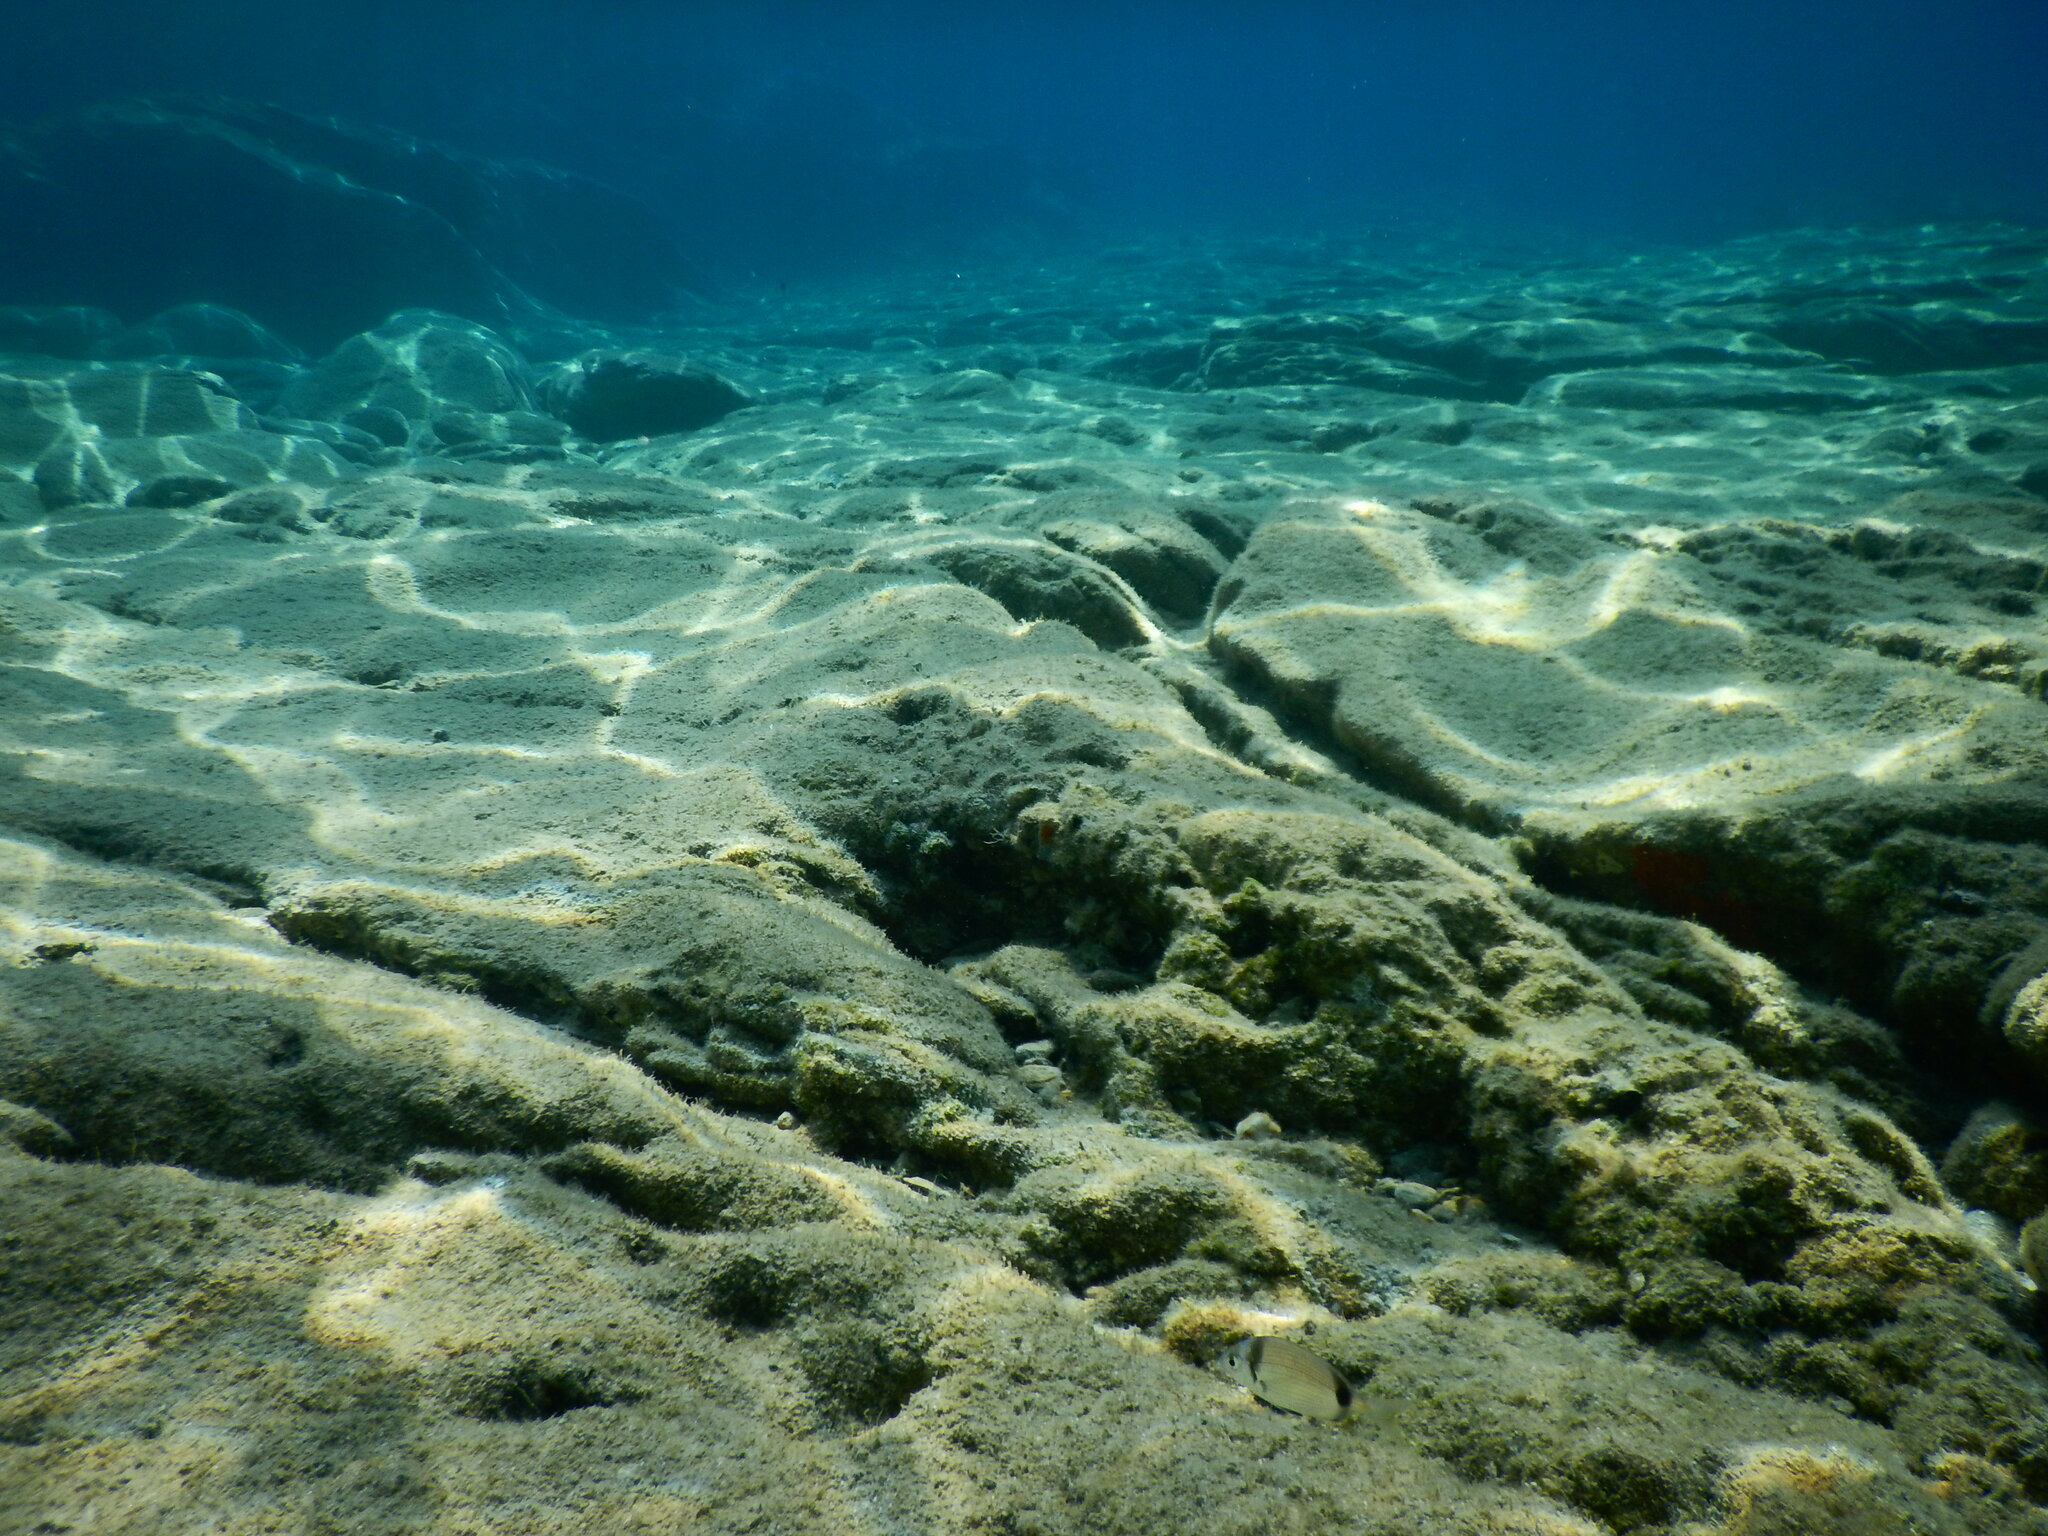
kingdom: Animalia
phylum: Chordata
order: Perciformes
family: Sparidae
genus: Diplodus
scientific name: Diplodus vulgaris
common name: Common two-banded seabream
